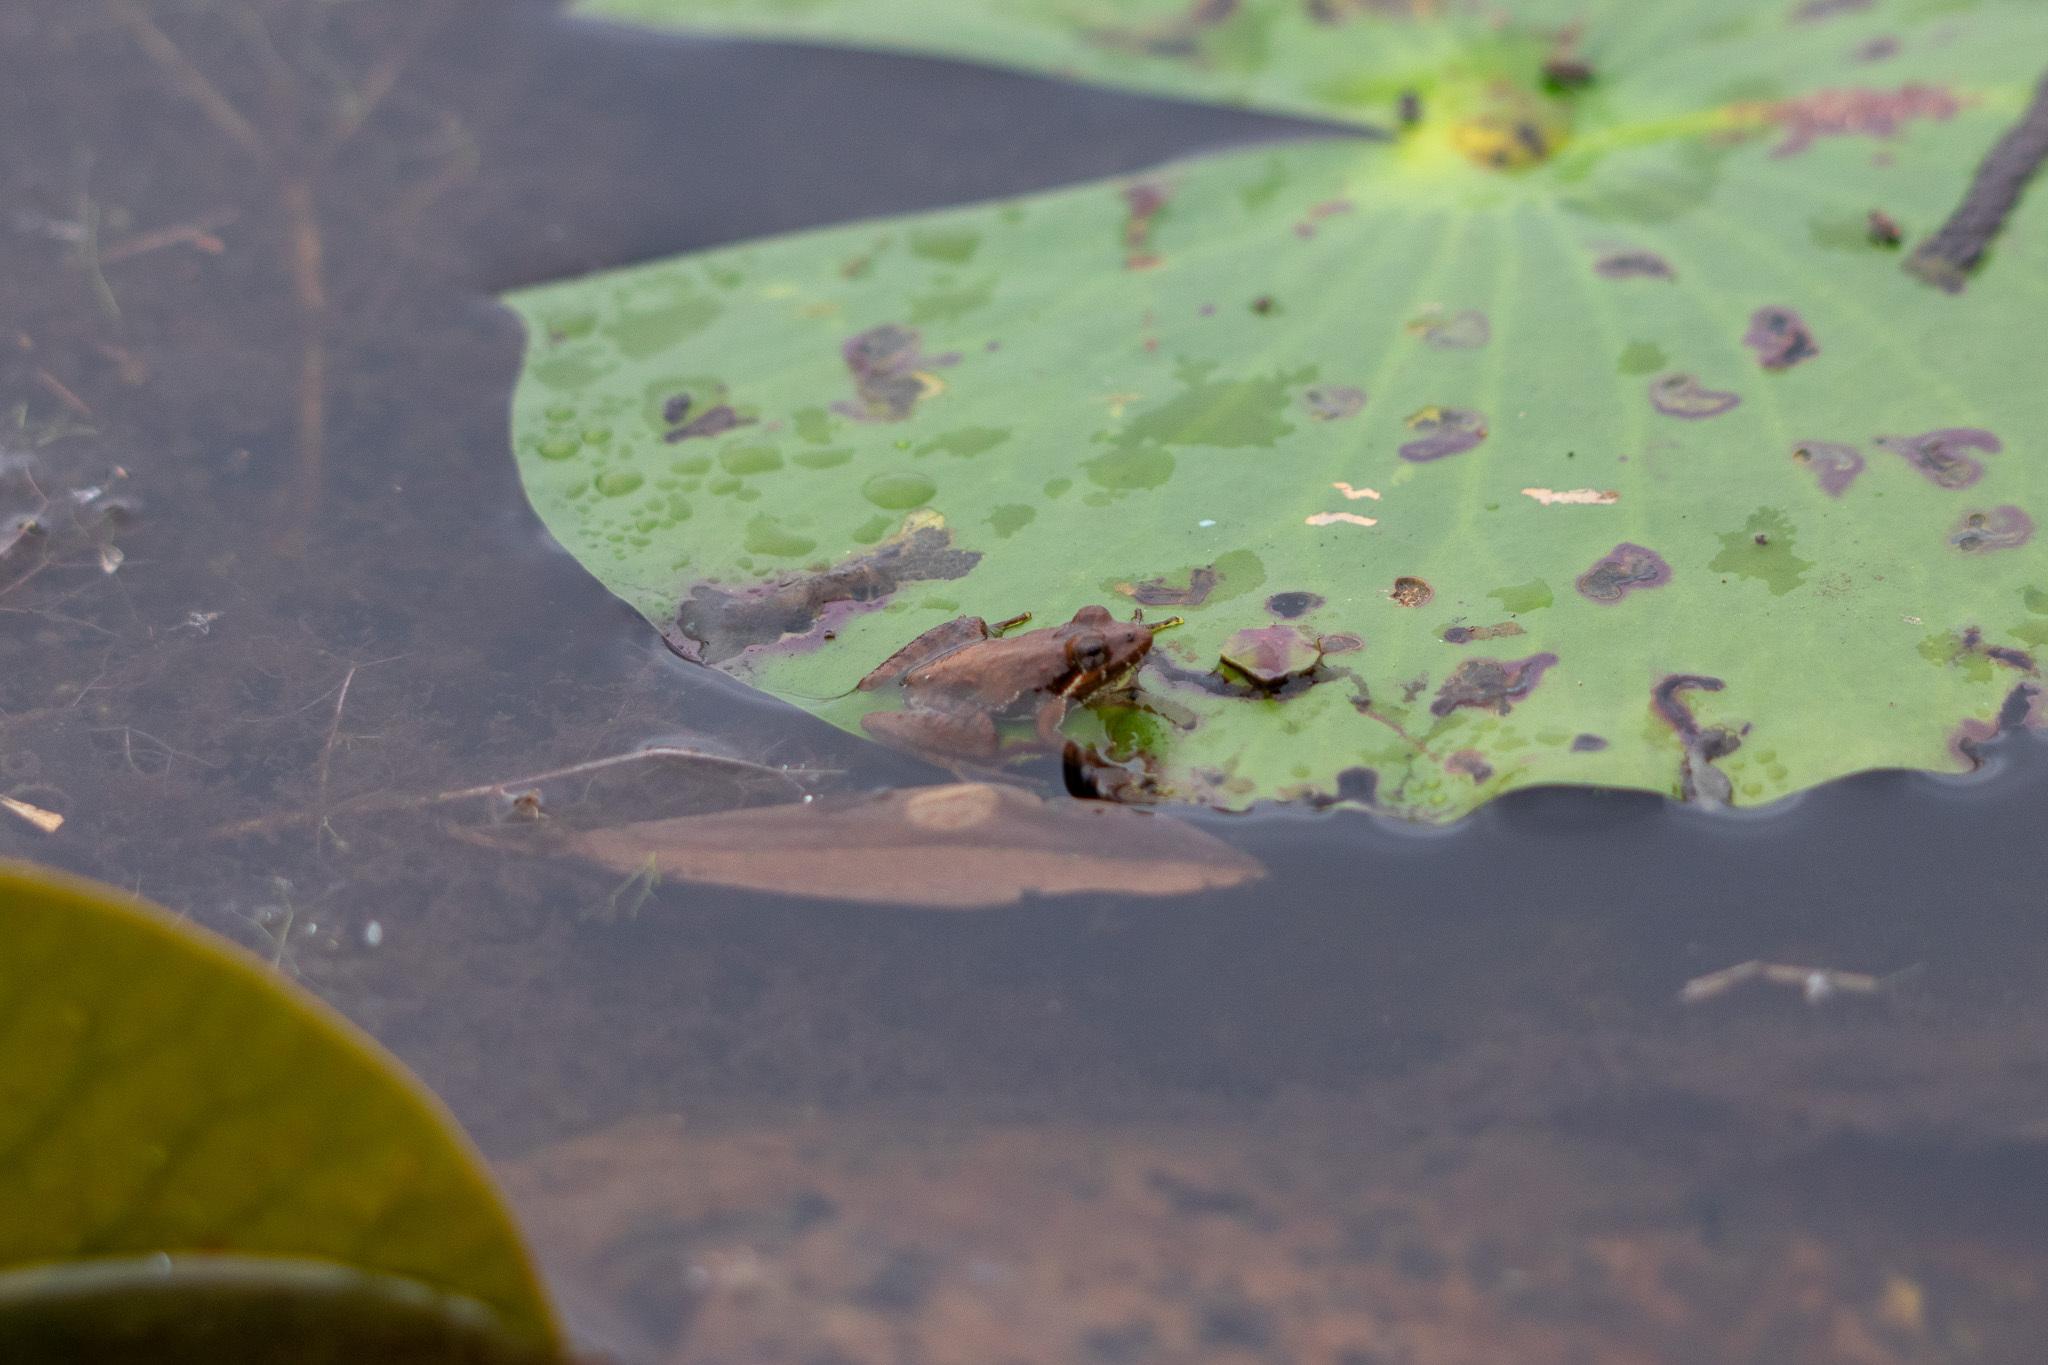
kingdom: Animalia
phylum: Chordata
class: Amphibia
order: Anura
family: Hylidae
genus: Acris
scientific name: Acris gryllus
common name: Southern cricket frog
